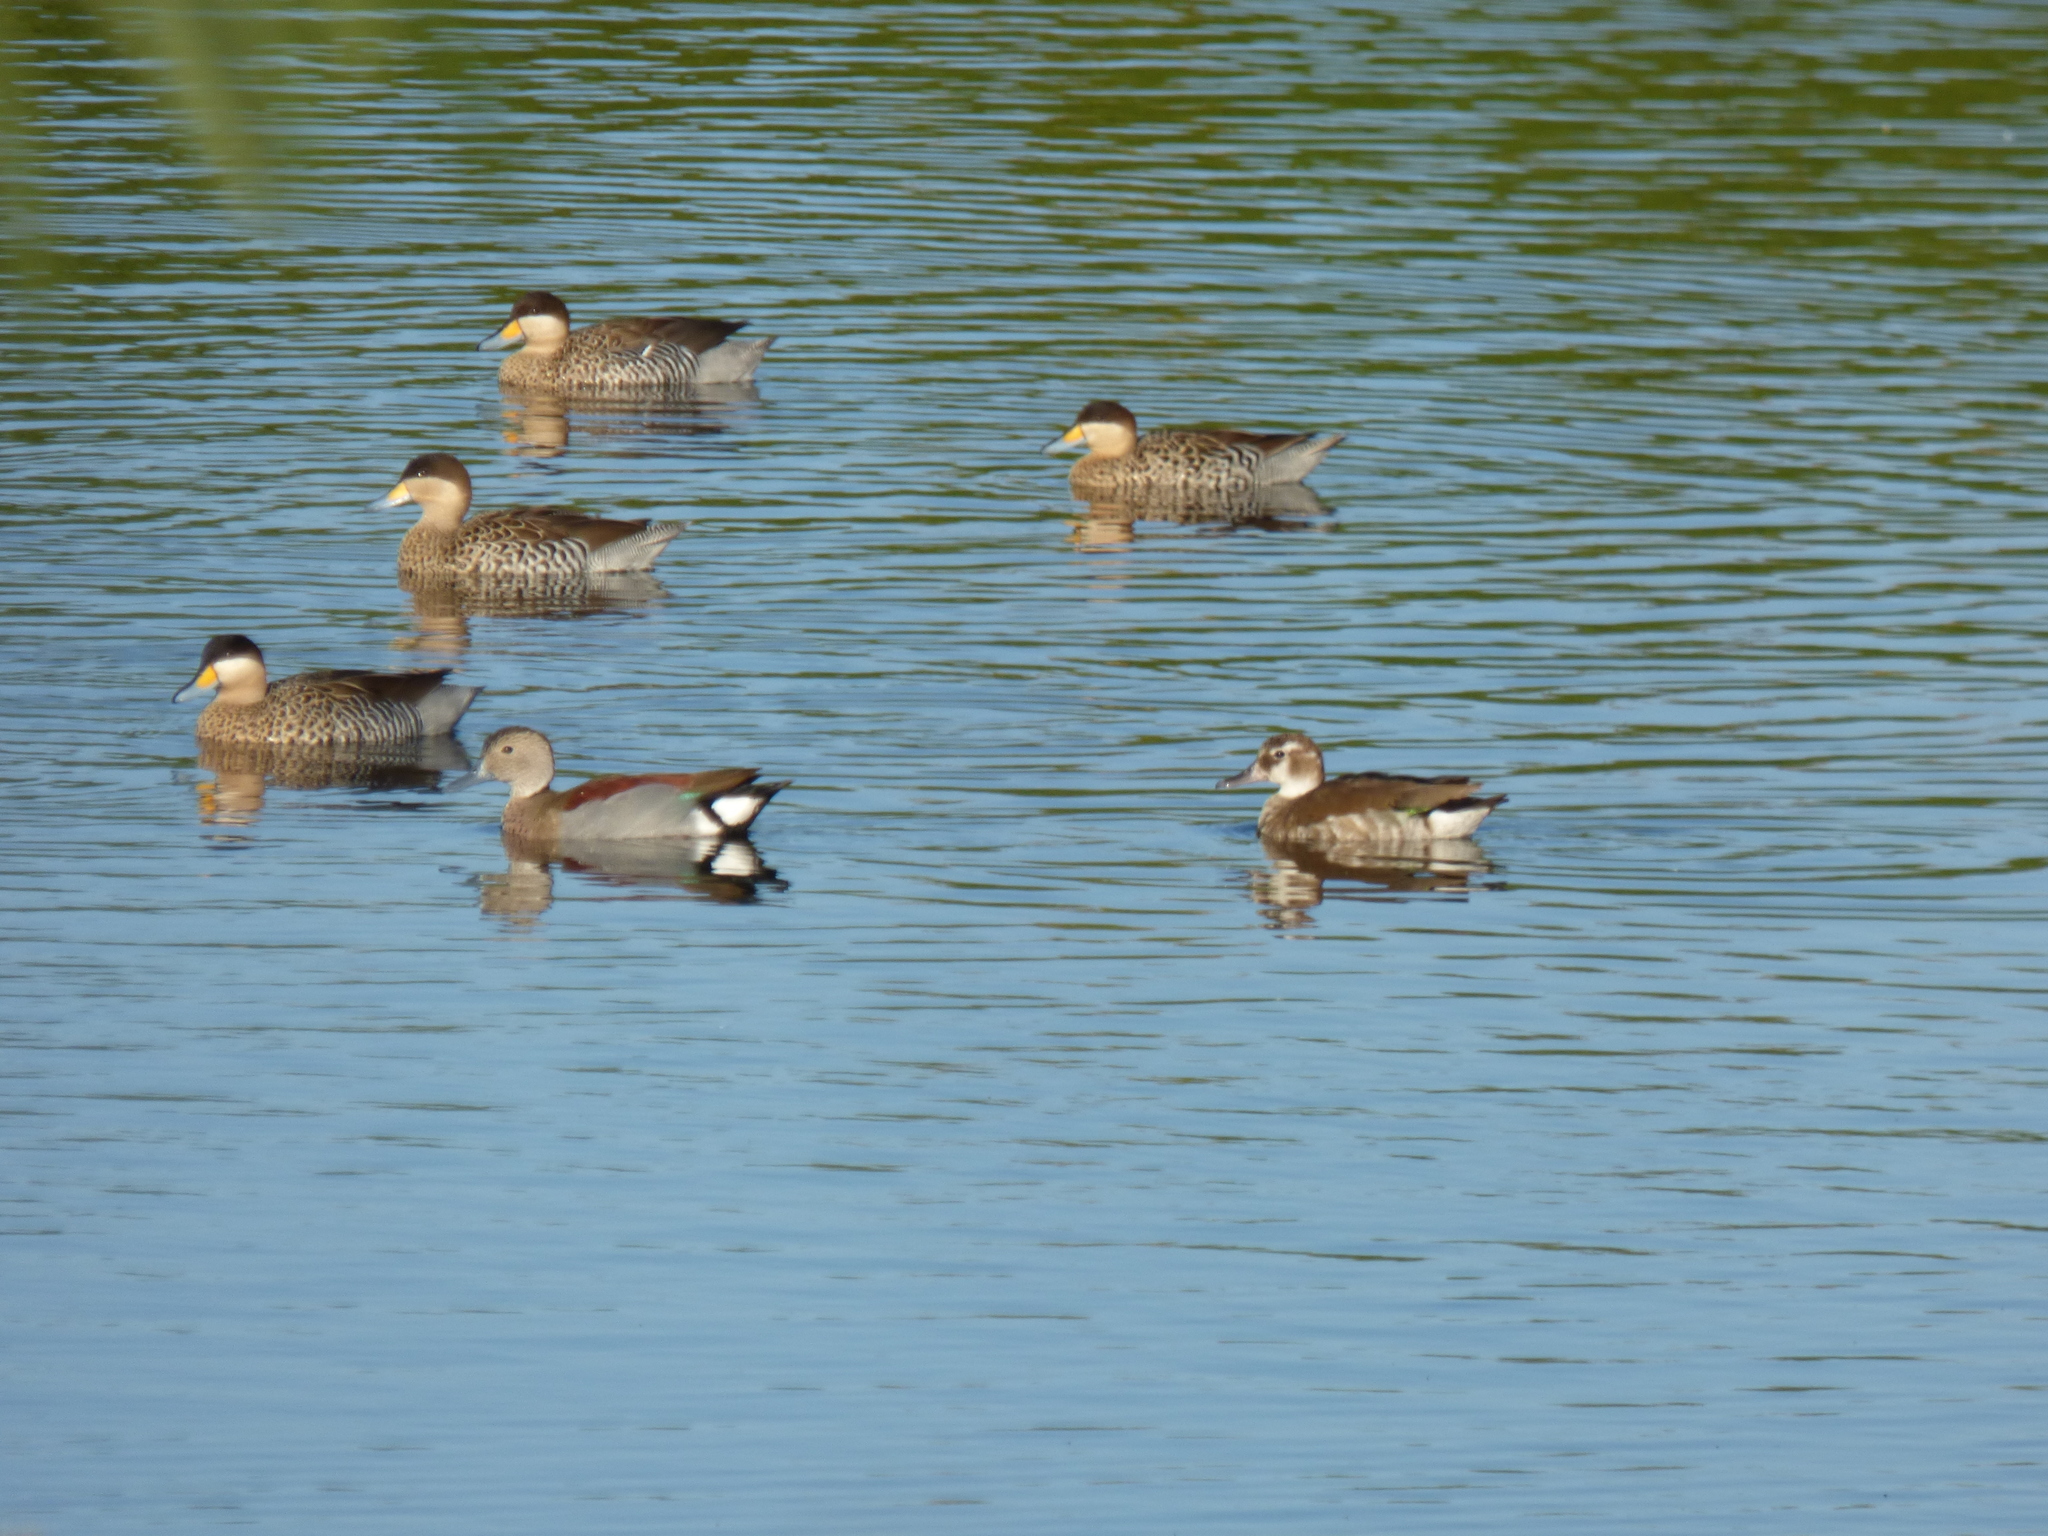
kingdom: Animalia
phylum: Chordata
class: Aves
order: Anseriformes
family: Anatidae
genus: Callonetta
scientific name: Callonetta leucophrys
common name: Ringed teal
